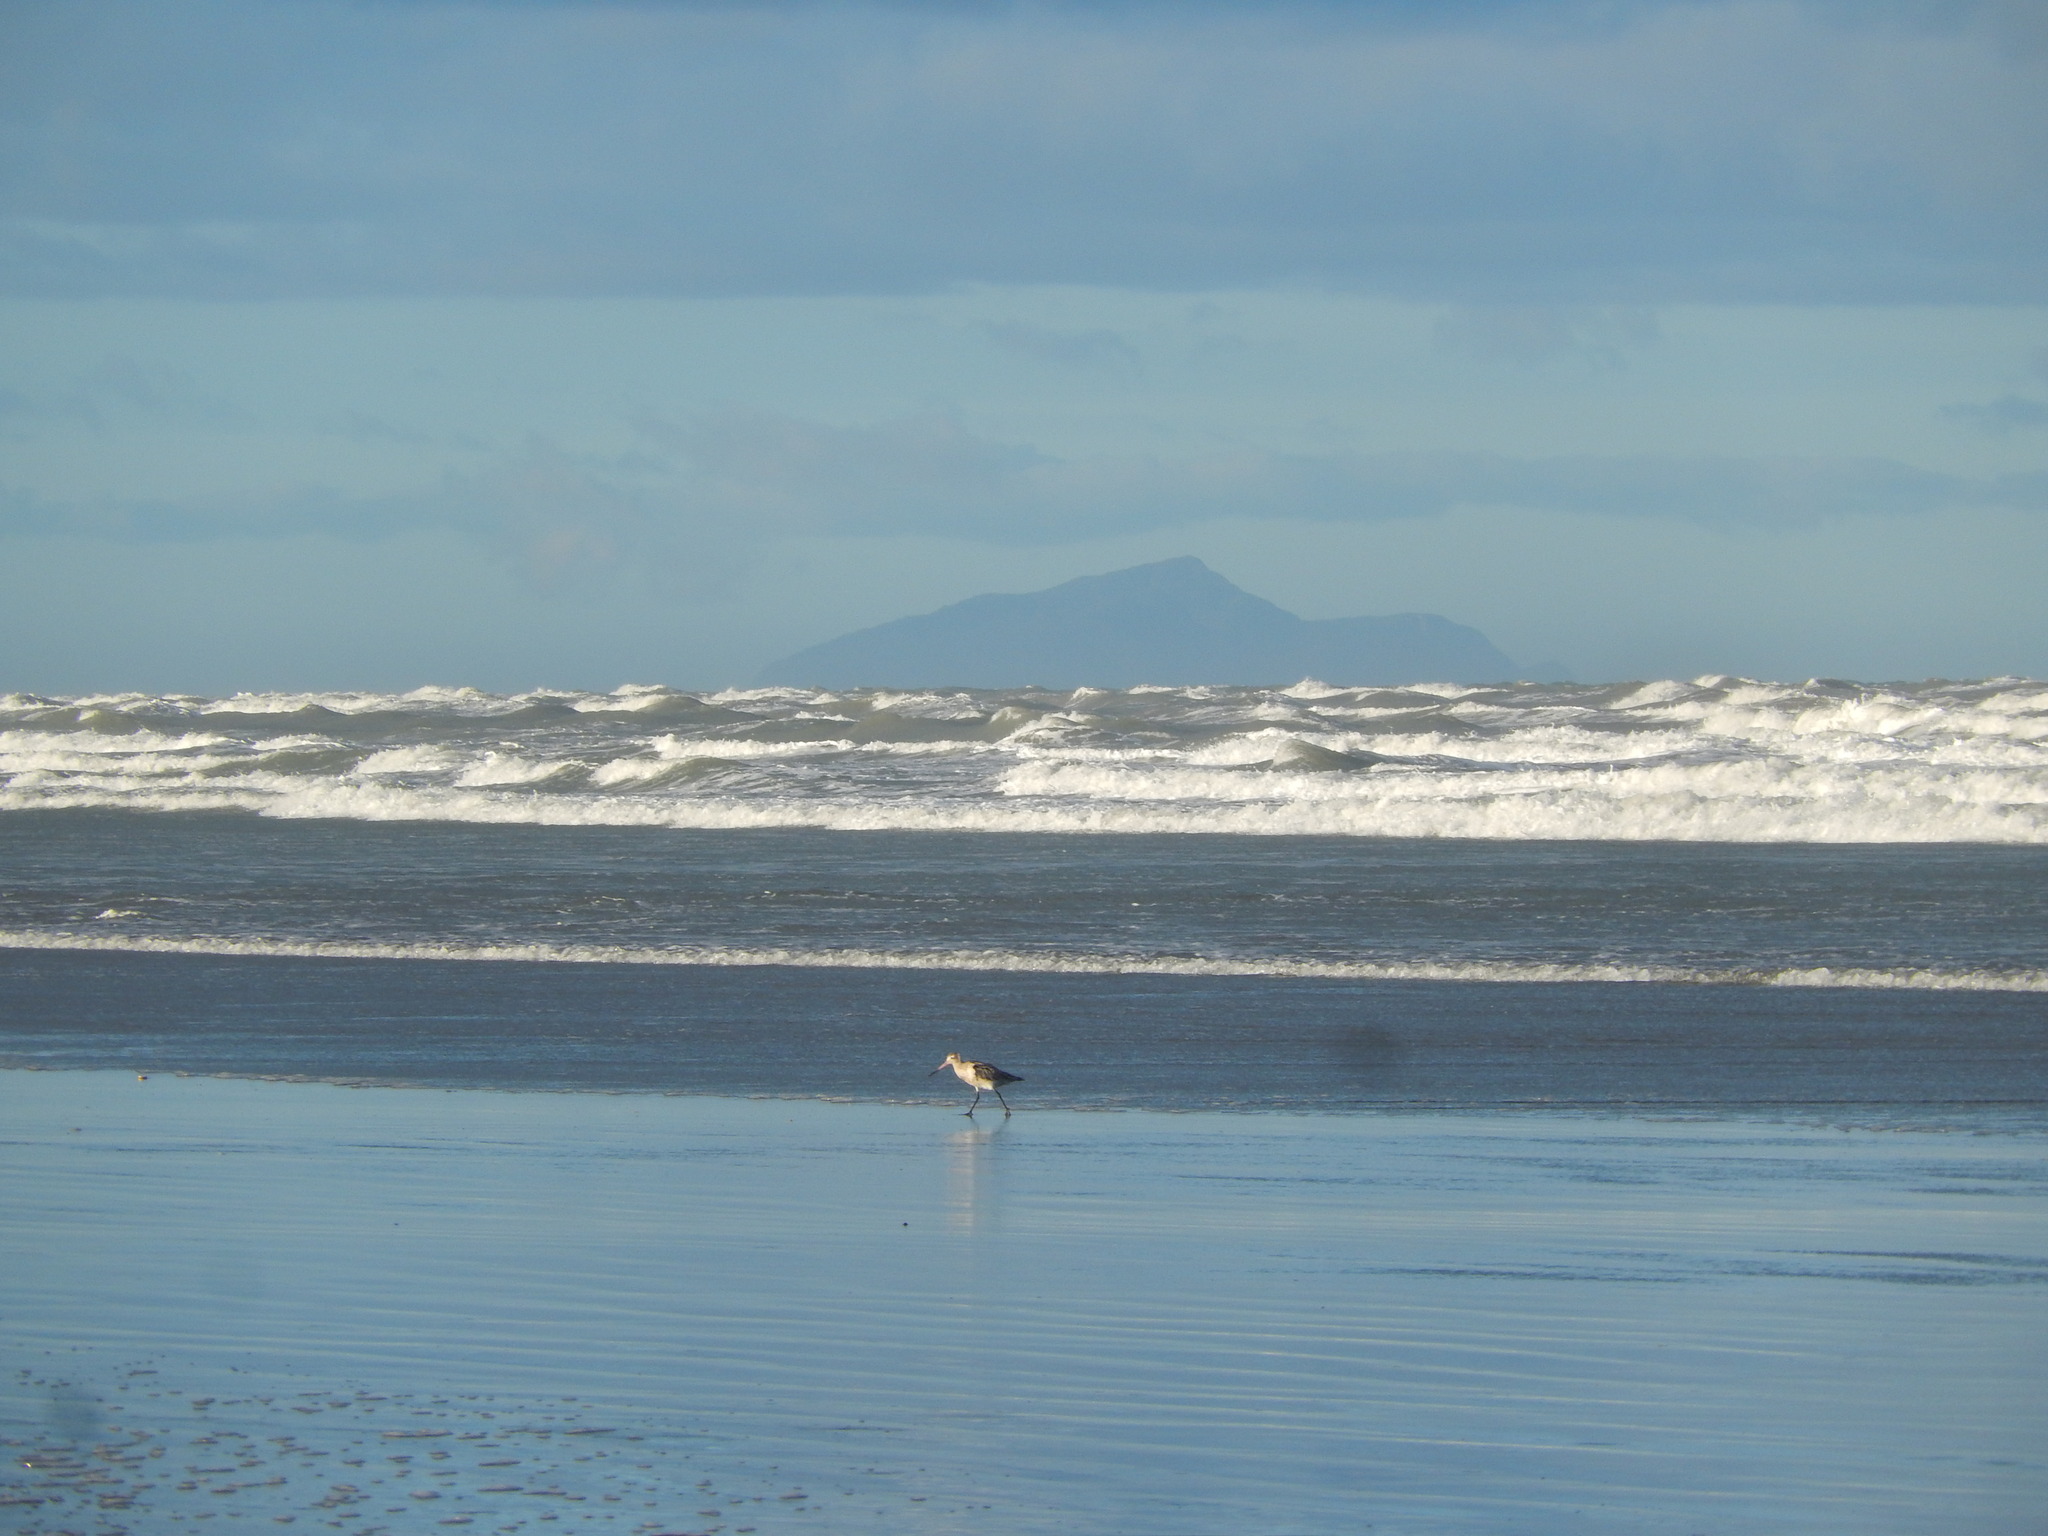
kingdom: Animalia
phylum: Chordata
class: Aves
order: Charadriiformes
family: Scolopacidae
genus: Limosa
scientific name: Limosa lapponica
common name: Bar-tailed godwit
